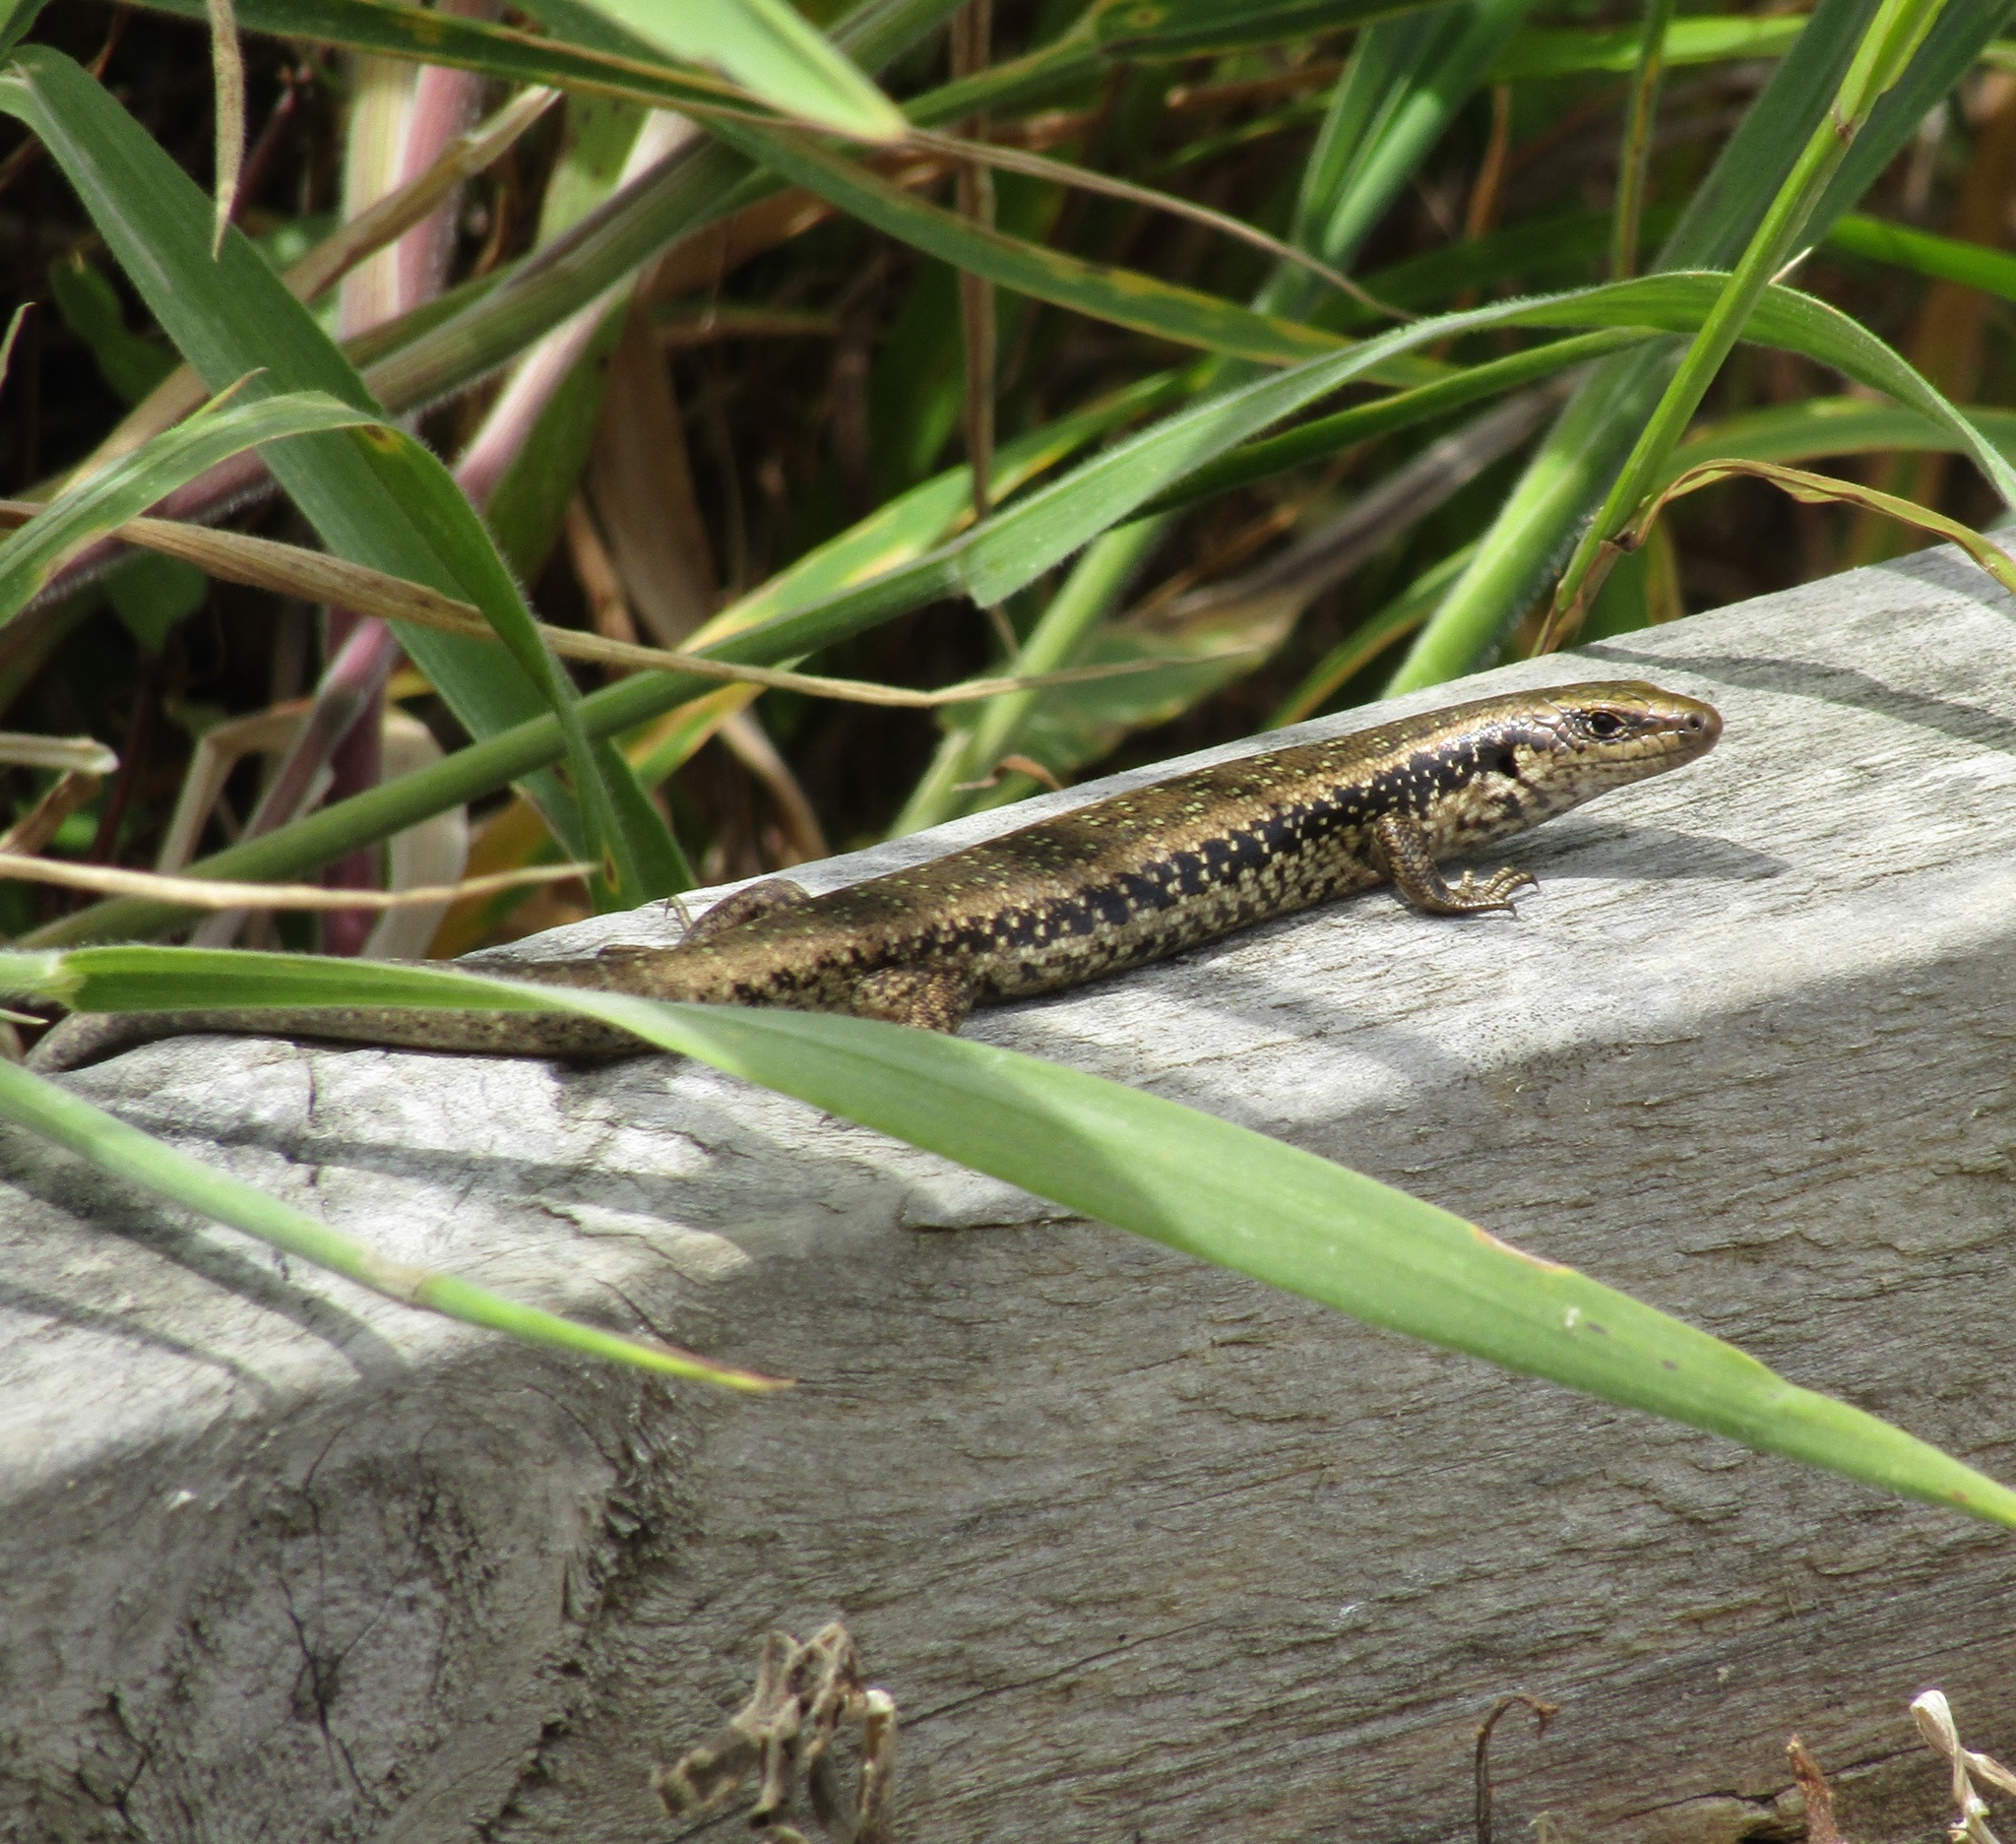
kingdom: Animalia
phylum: Chordata
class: Squamata
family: Scincidae
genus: Oligosoma
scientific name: Oligosoma kokowai
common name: Northern spotted skink
